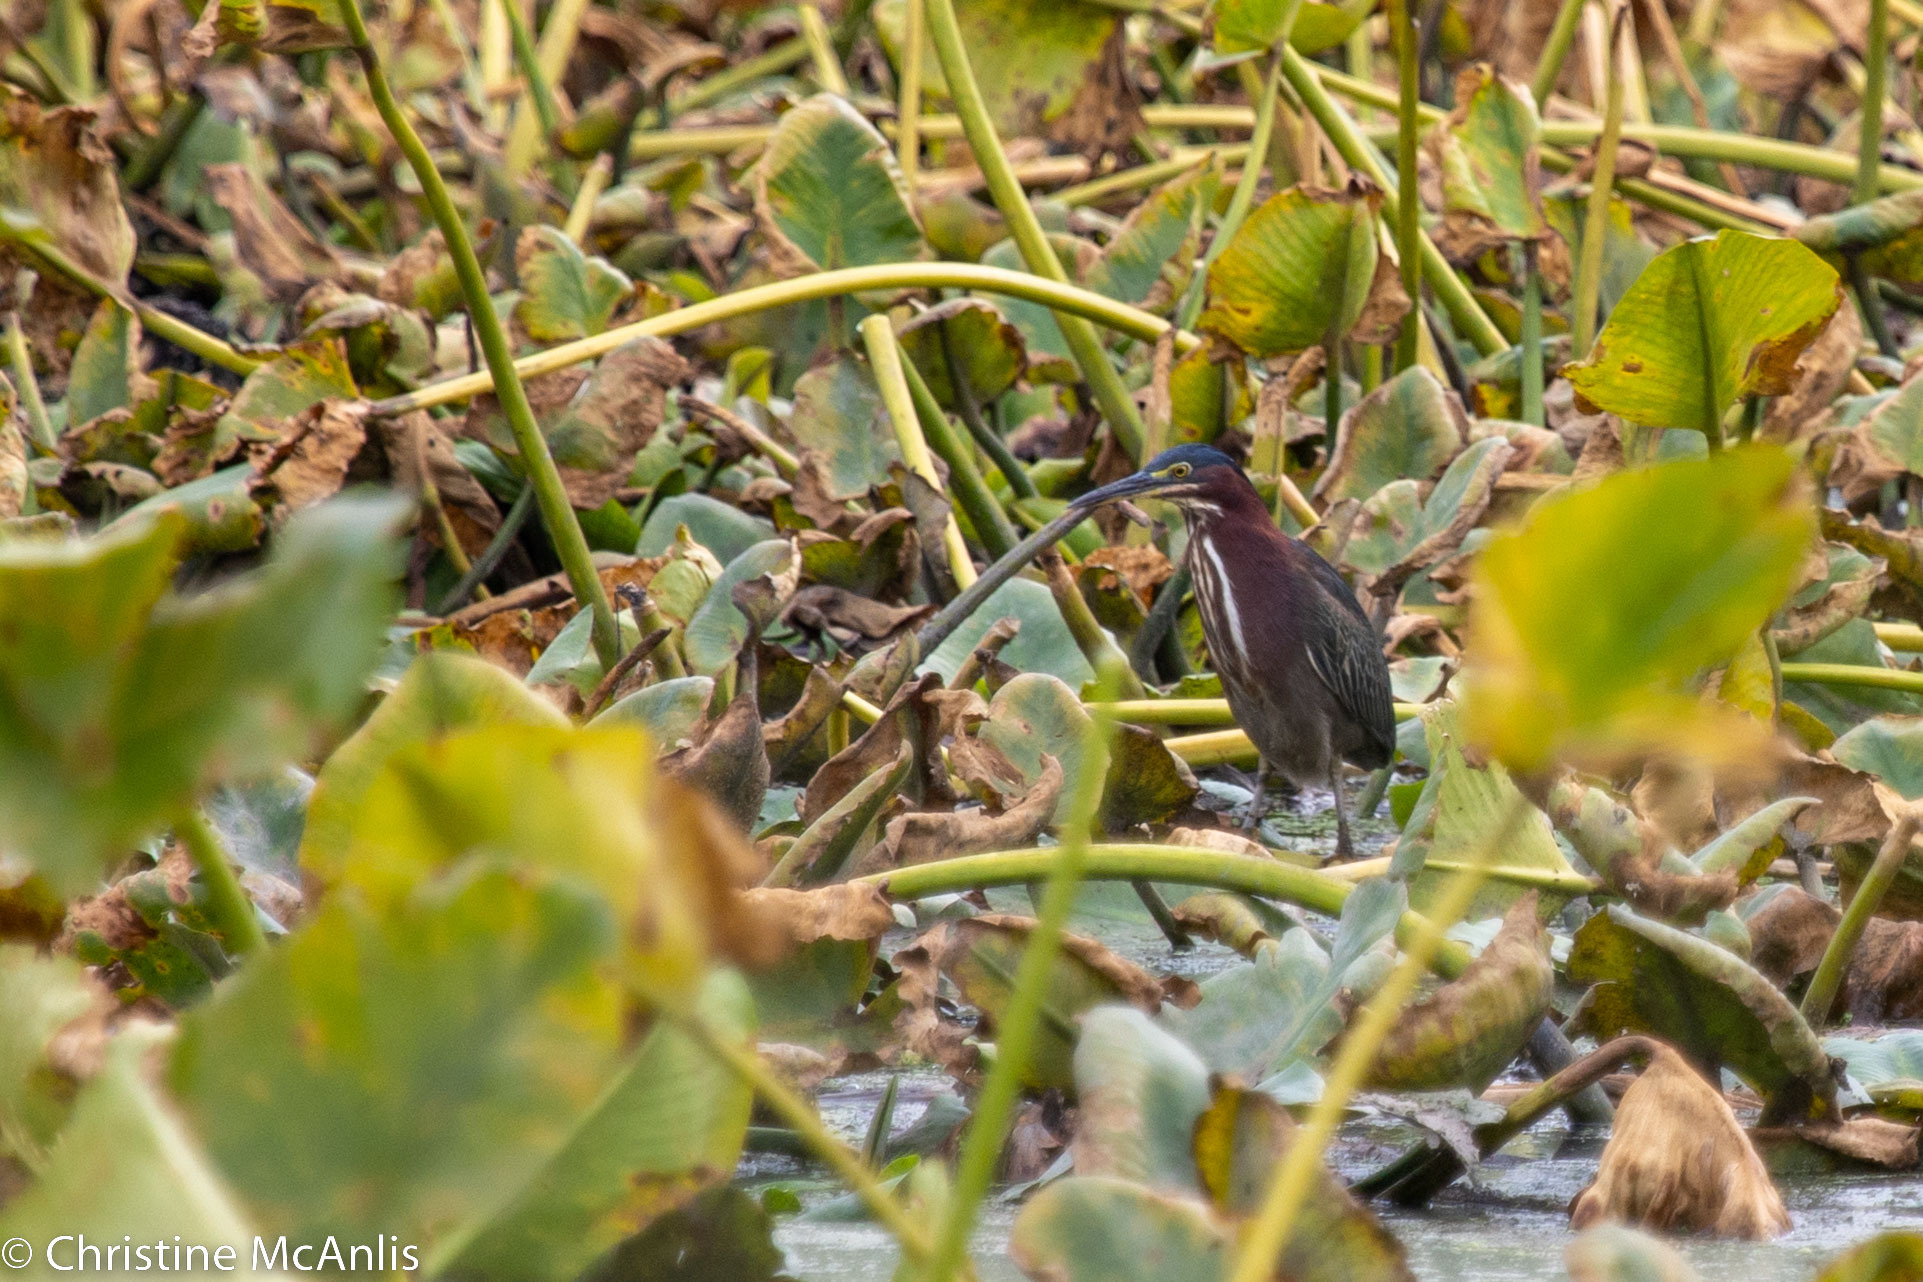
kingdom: Animalia
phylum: Chordata
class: Aves
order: Pelecaniformes
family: Ardeidae
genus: Butorides
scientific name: Butorides virescens
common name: Green heron
